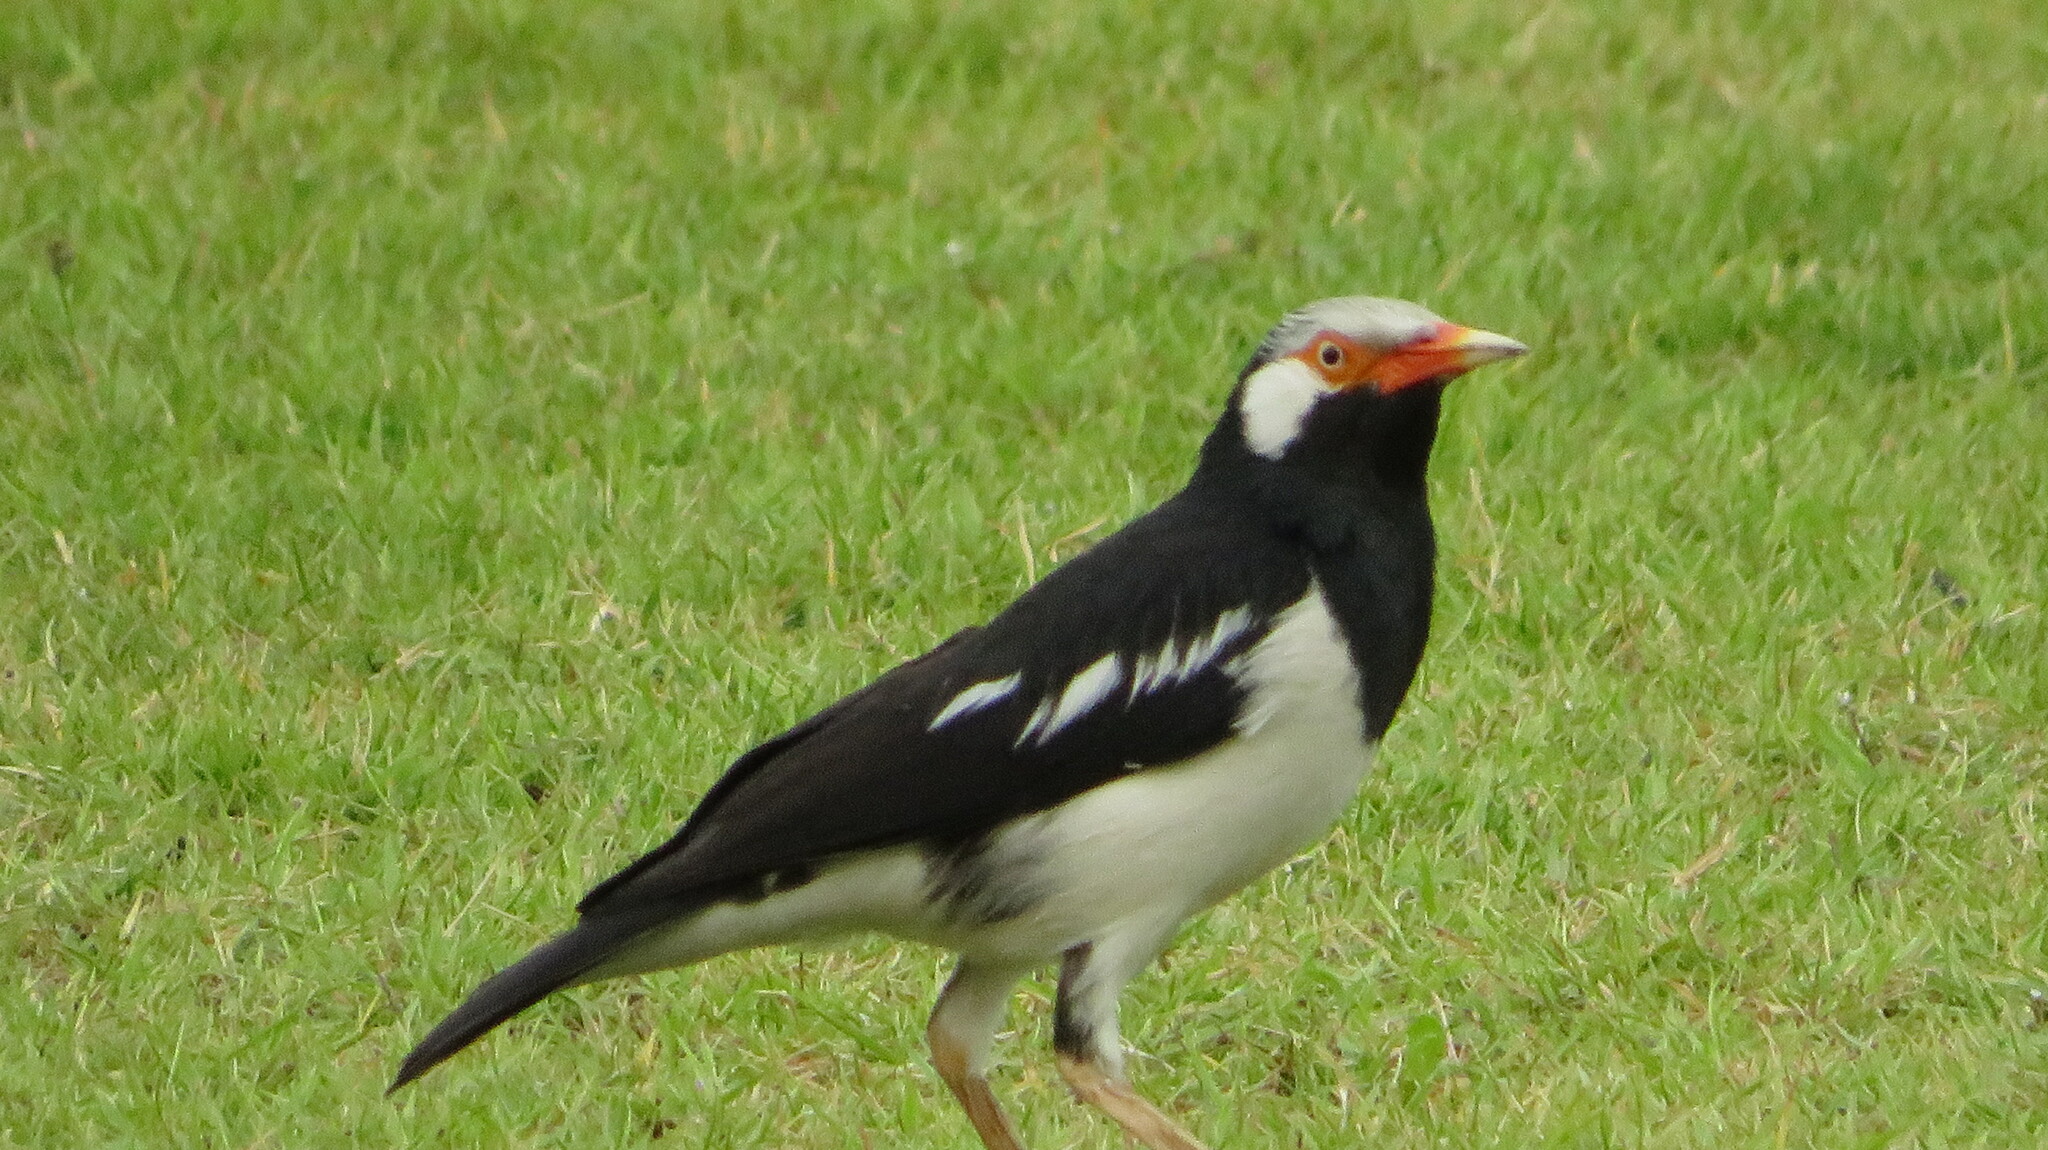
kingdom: Animalia
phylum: Chordata
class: Aves
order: Passeriformes
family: Sturnidae
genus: Gracupica
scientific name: Gracupica contra
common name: Pied myna
